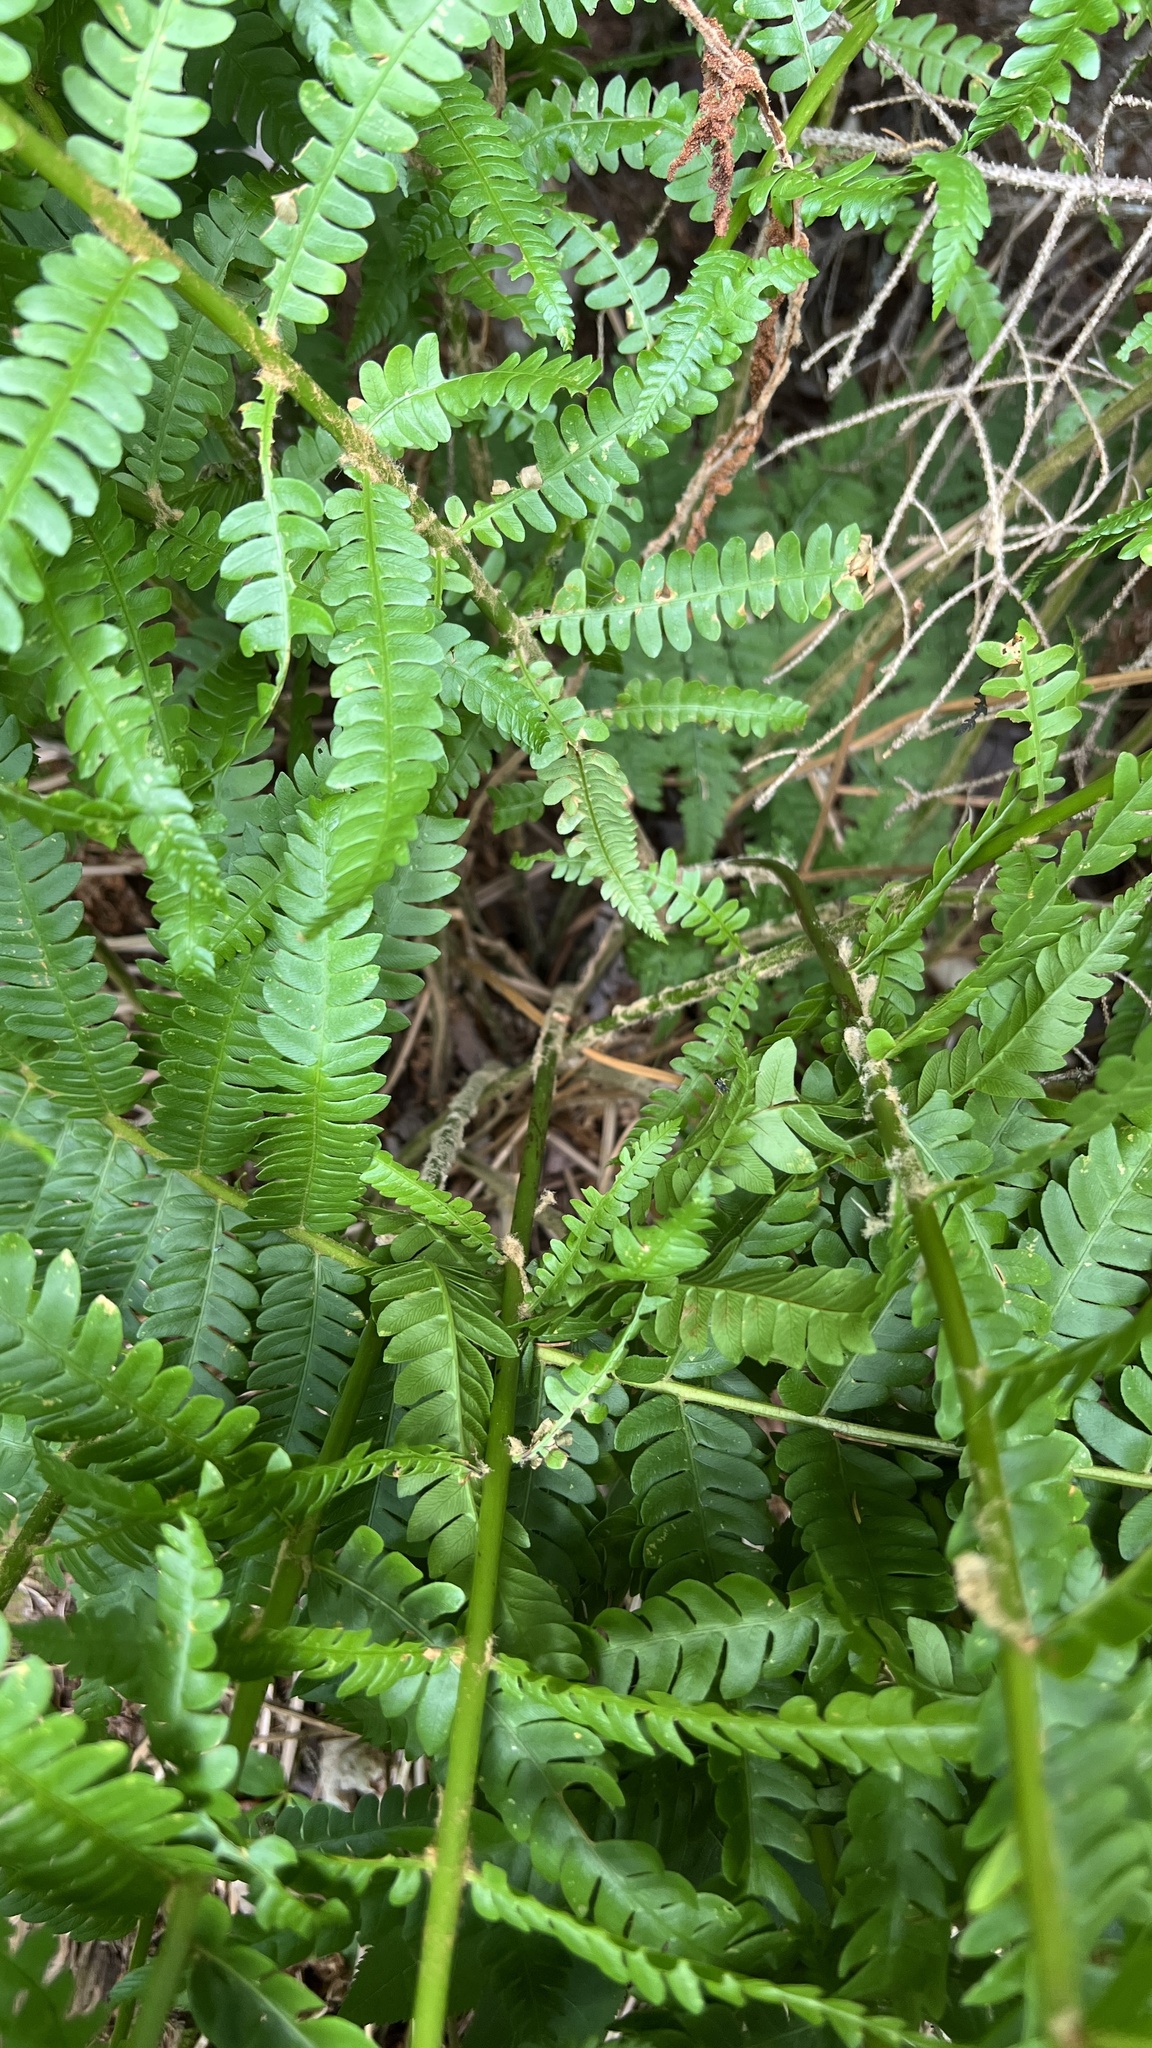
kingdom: Plantae
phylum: Tracheophyta
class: Polypodiopsida
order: Osmundales
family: Osmundaceae
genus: Osmundastrum
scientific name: Osmundastrum cinnamomeum
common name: Cinnamon fern
